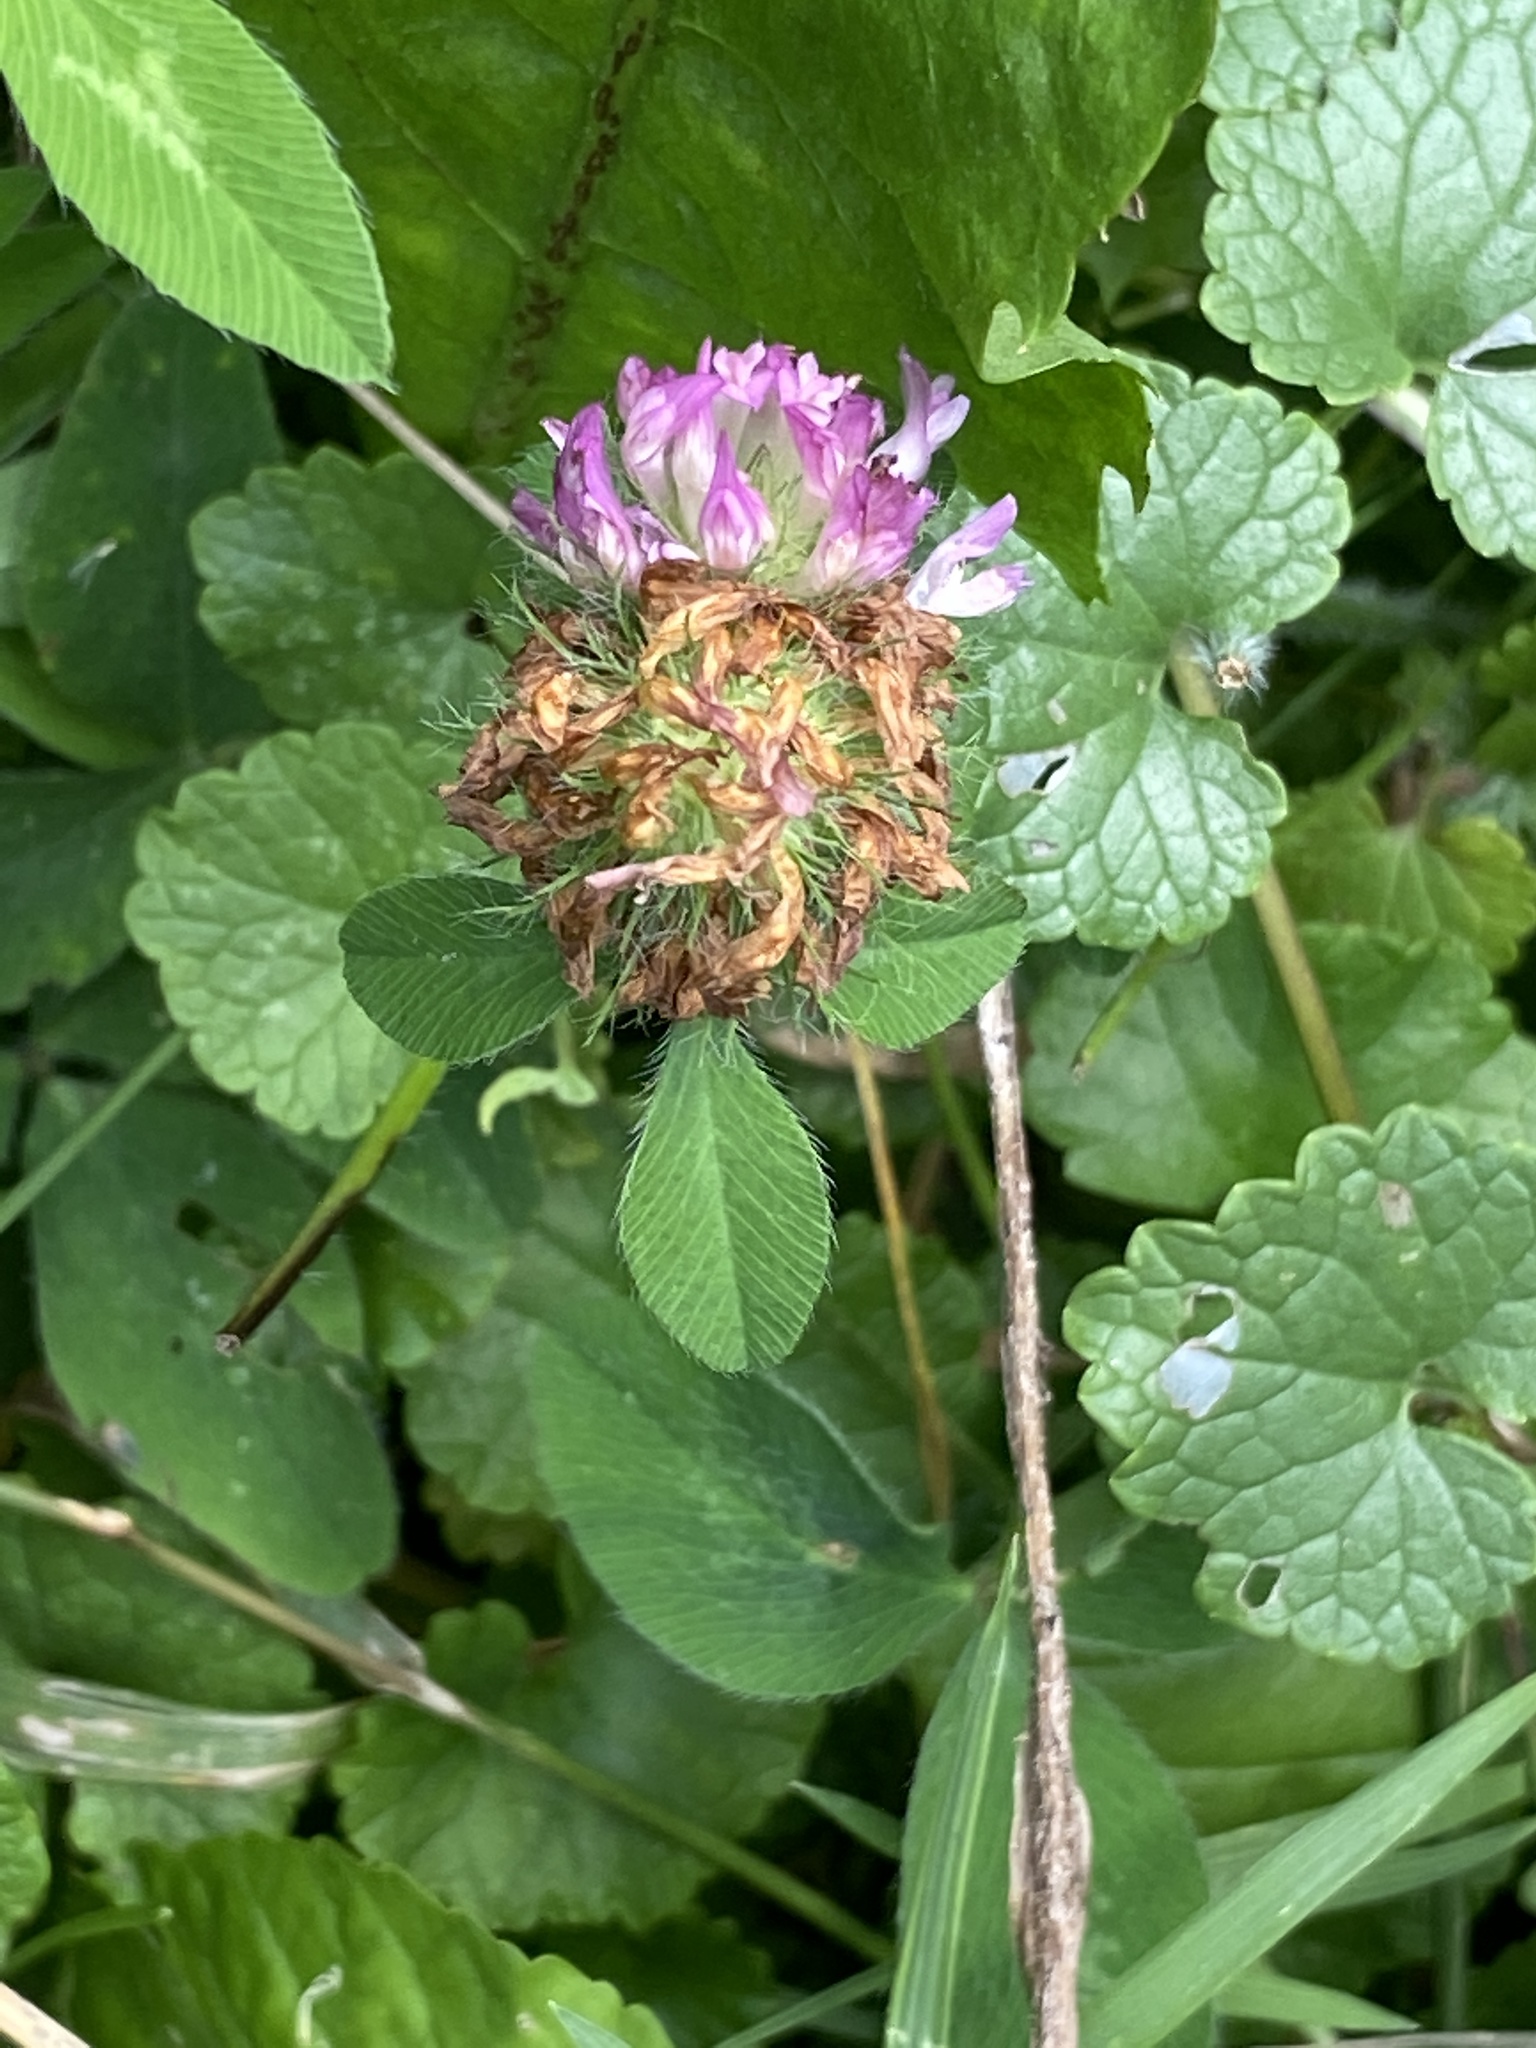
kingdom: Plantae
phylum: Tracheophyta
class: Magnoliopsida
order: Fabales
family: Fabaceae
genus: Trifolium
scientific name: Trifolium pratense
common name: Red clover
